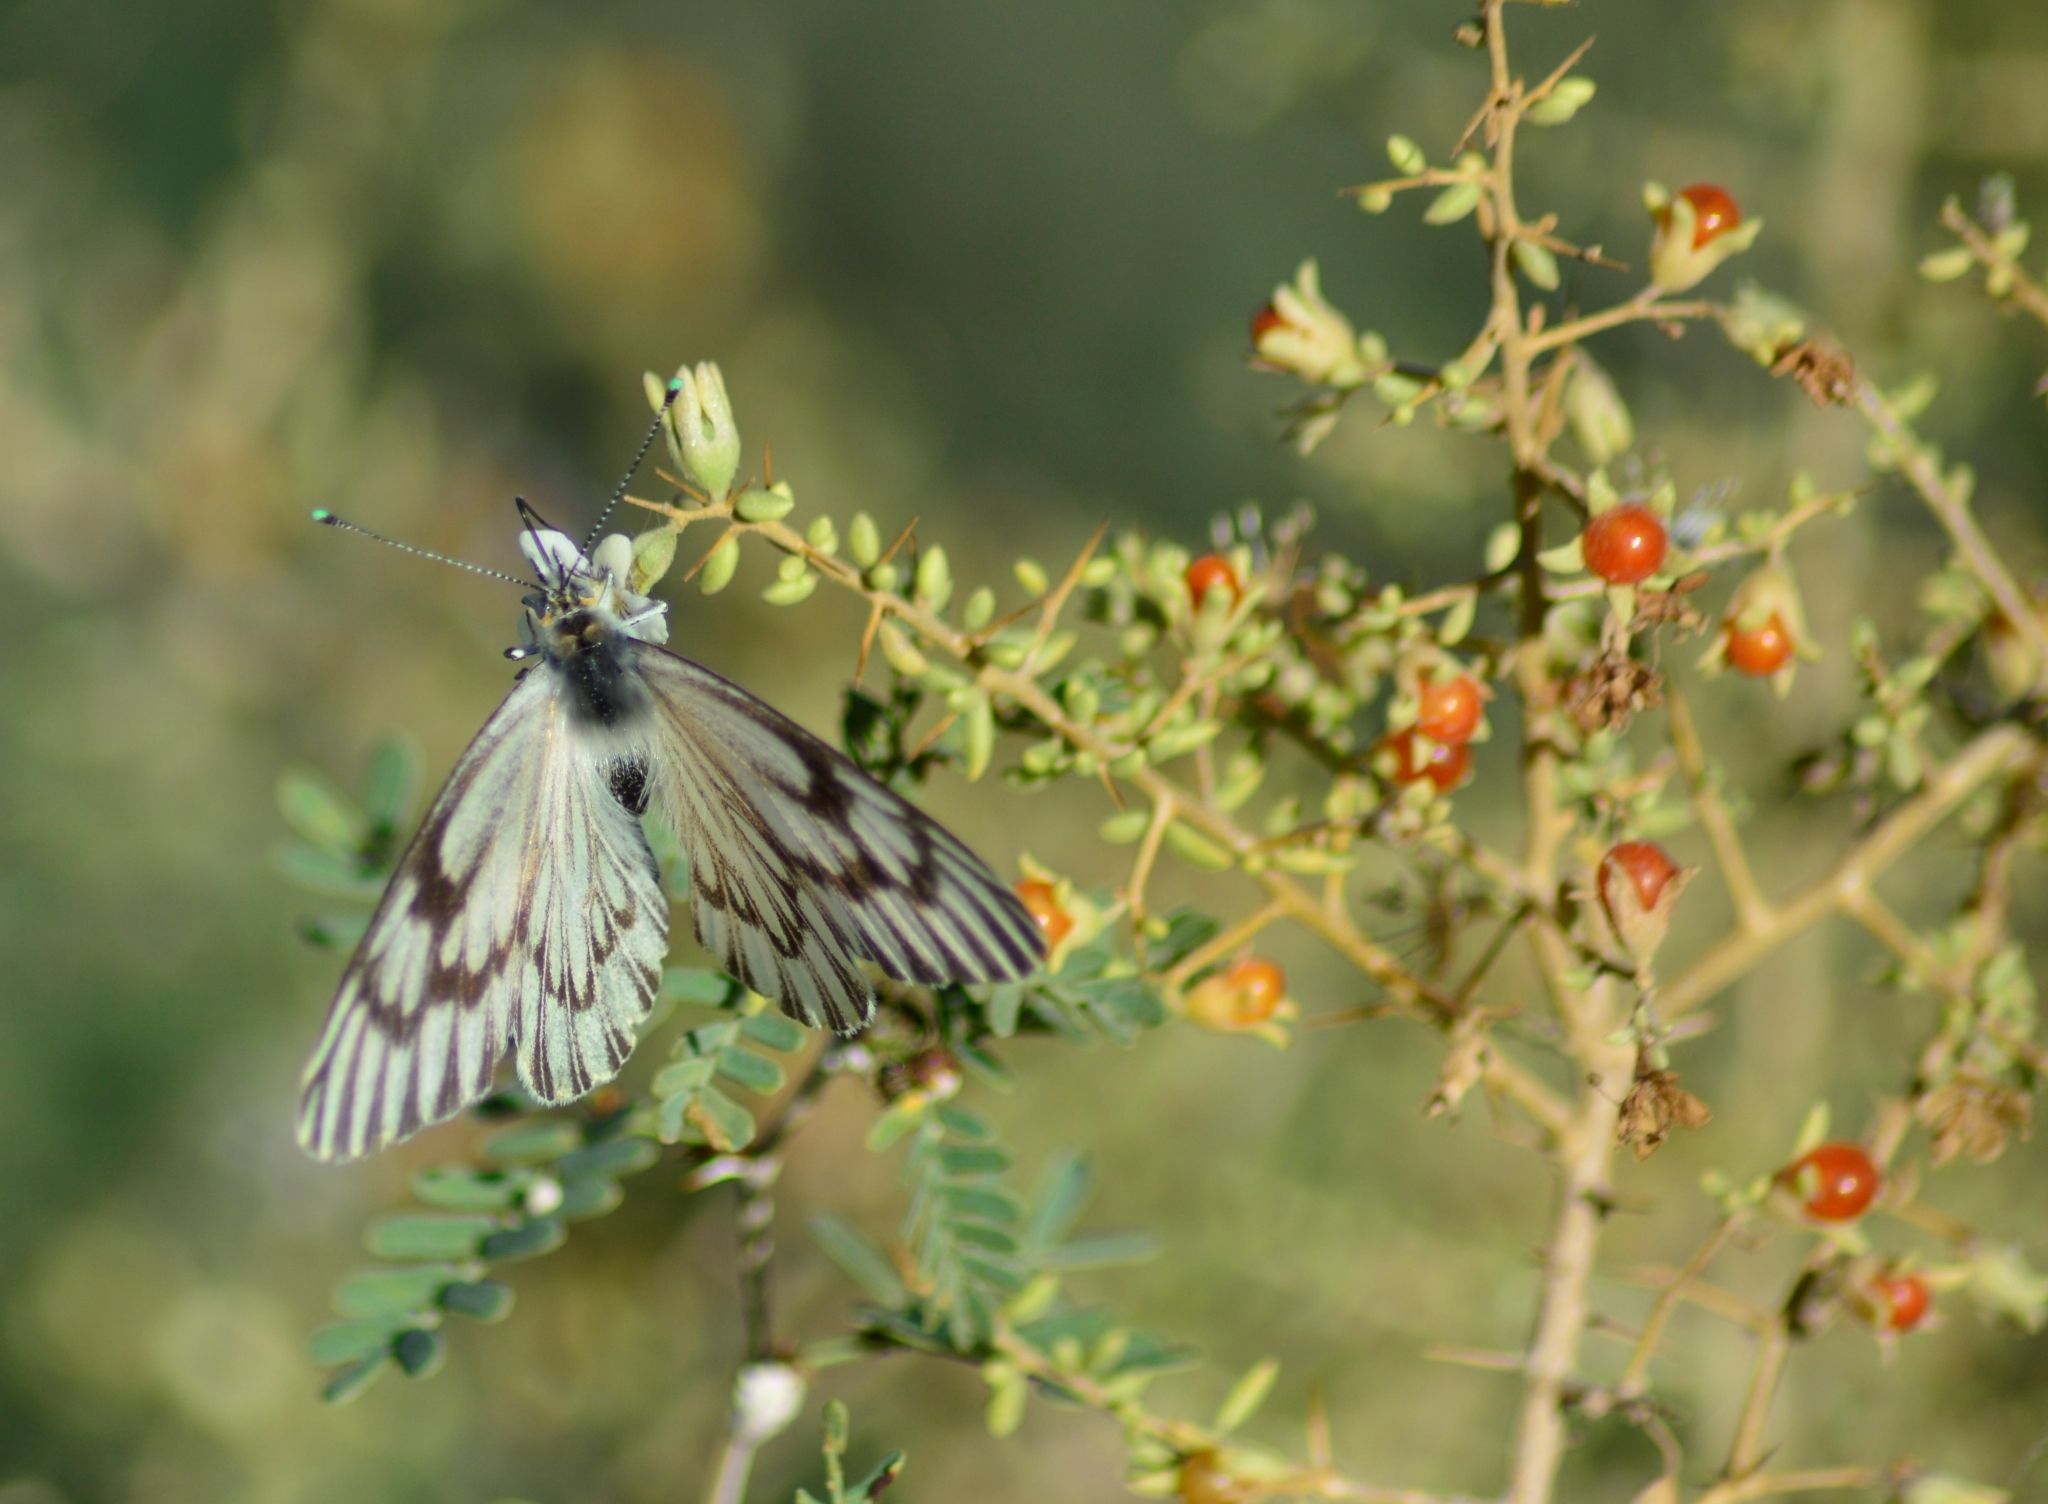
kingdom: Animalia
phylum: Arthropoda
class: Insecta
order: Lepidoptera
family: Pieridae
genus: Tatochila
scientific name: Tatochila mercedis
